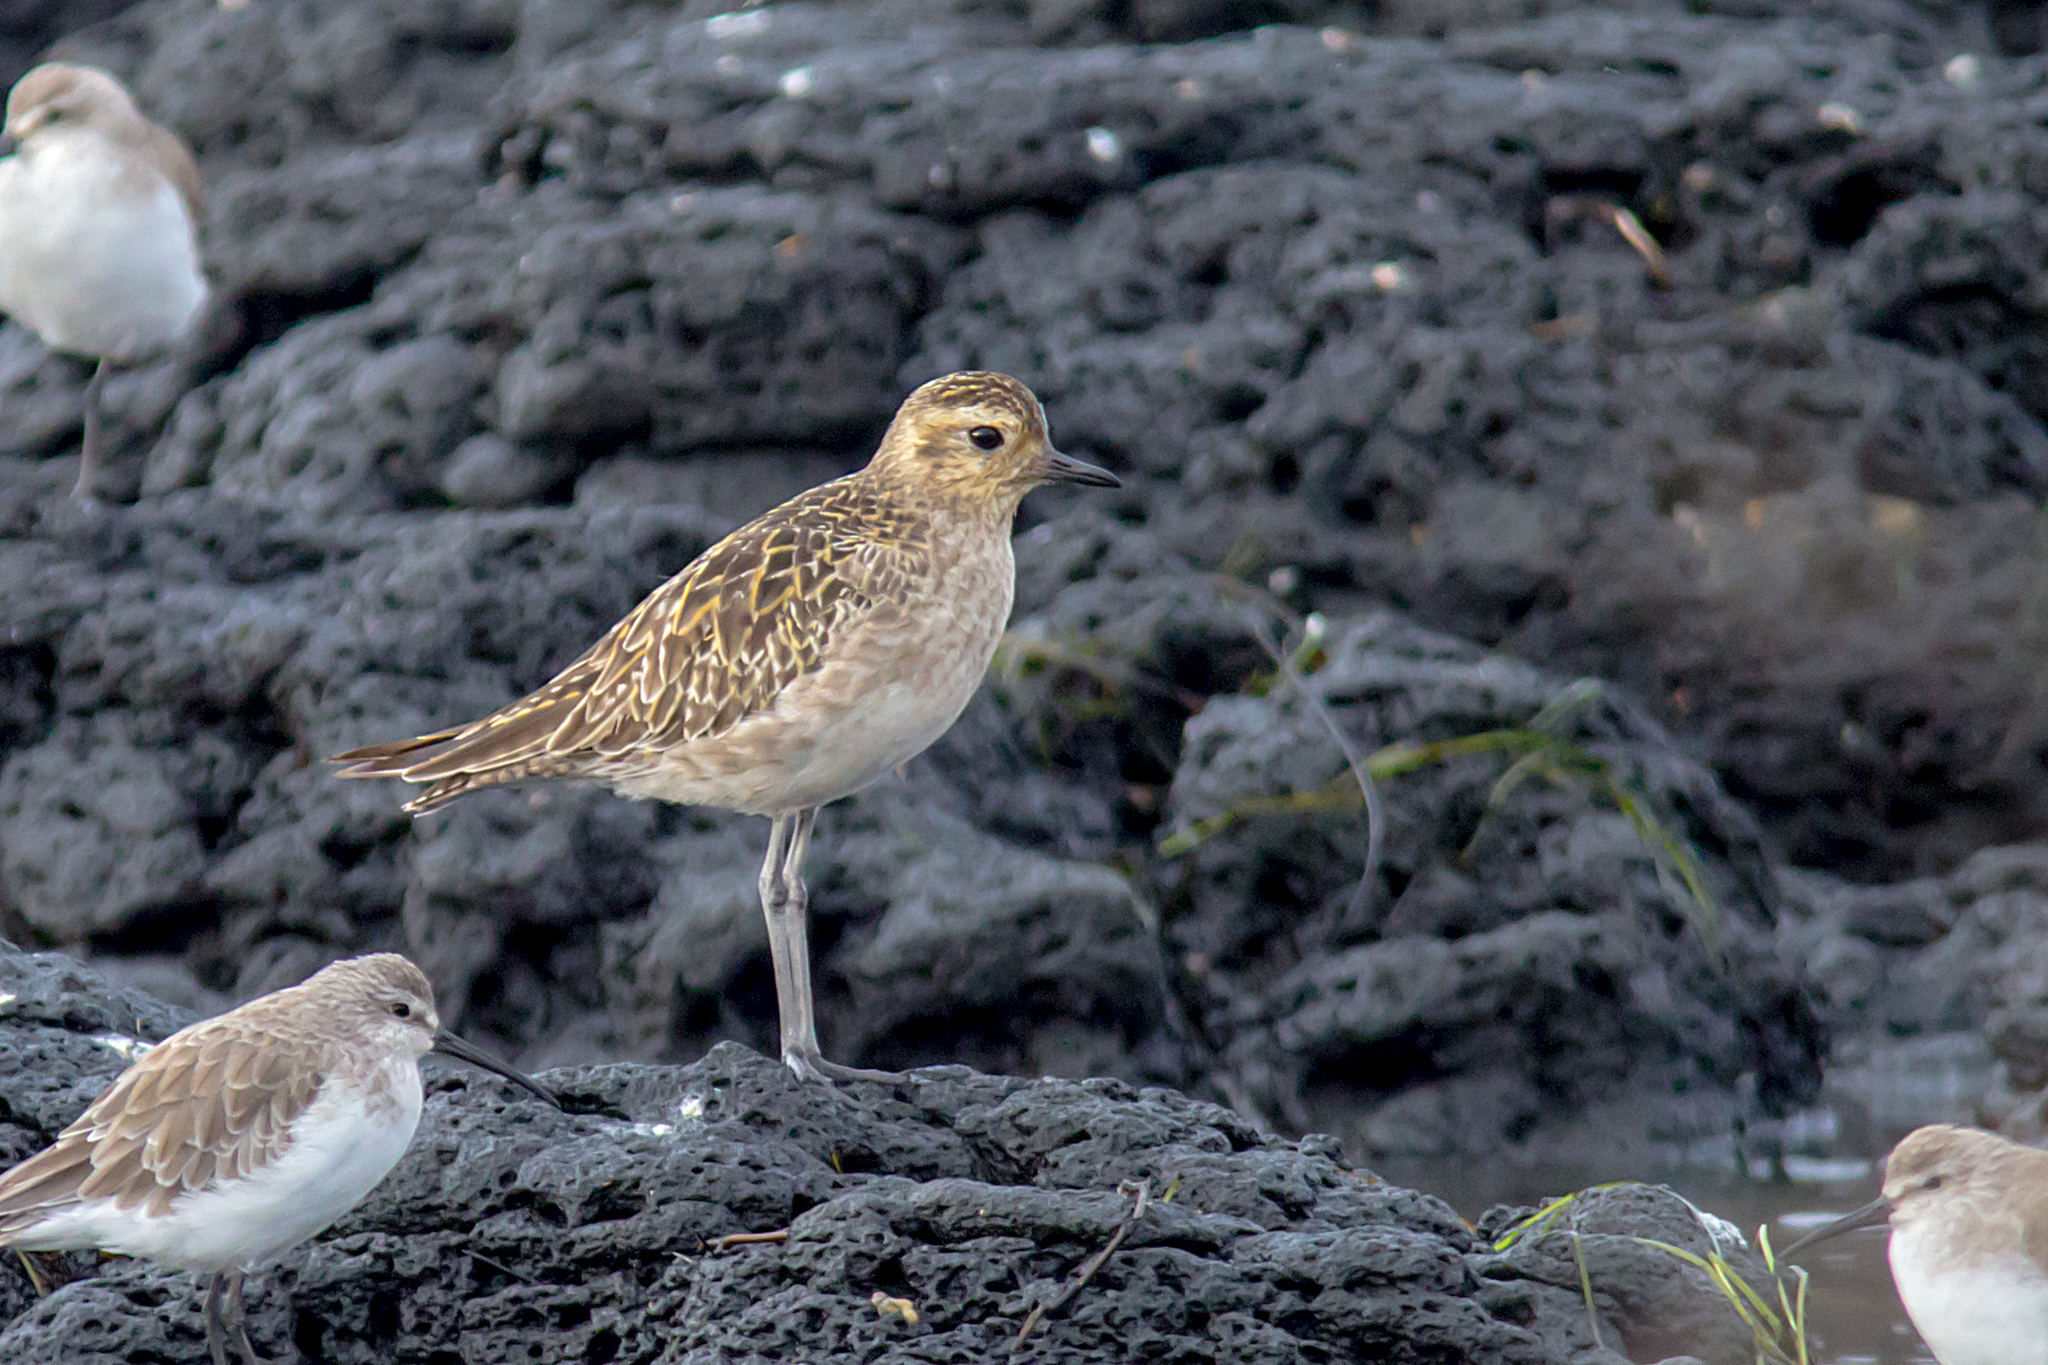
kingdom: Animalia
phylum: Chordata
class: Aves
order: Charadriiformes
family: Charadriidae
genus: Pluvialis
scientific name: Pluvialis fulva
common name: Pacific golden plover
